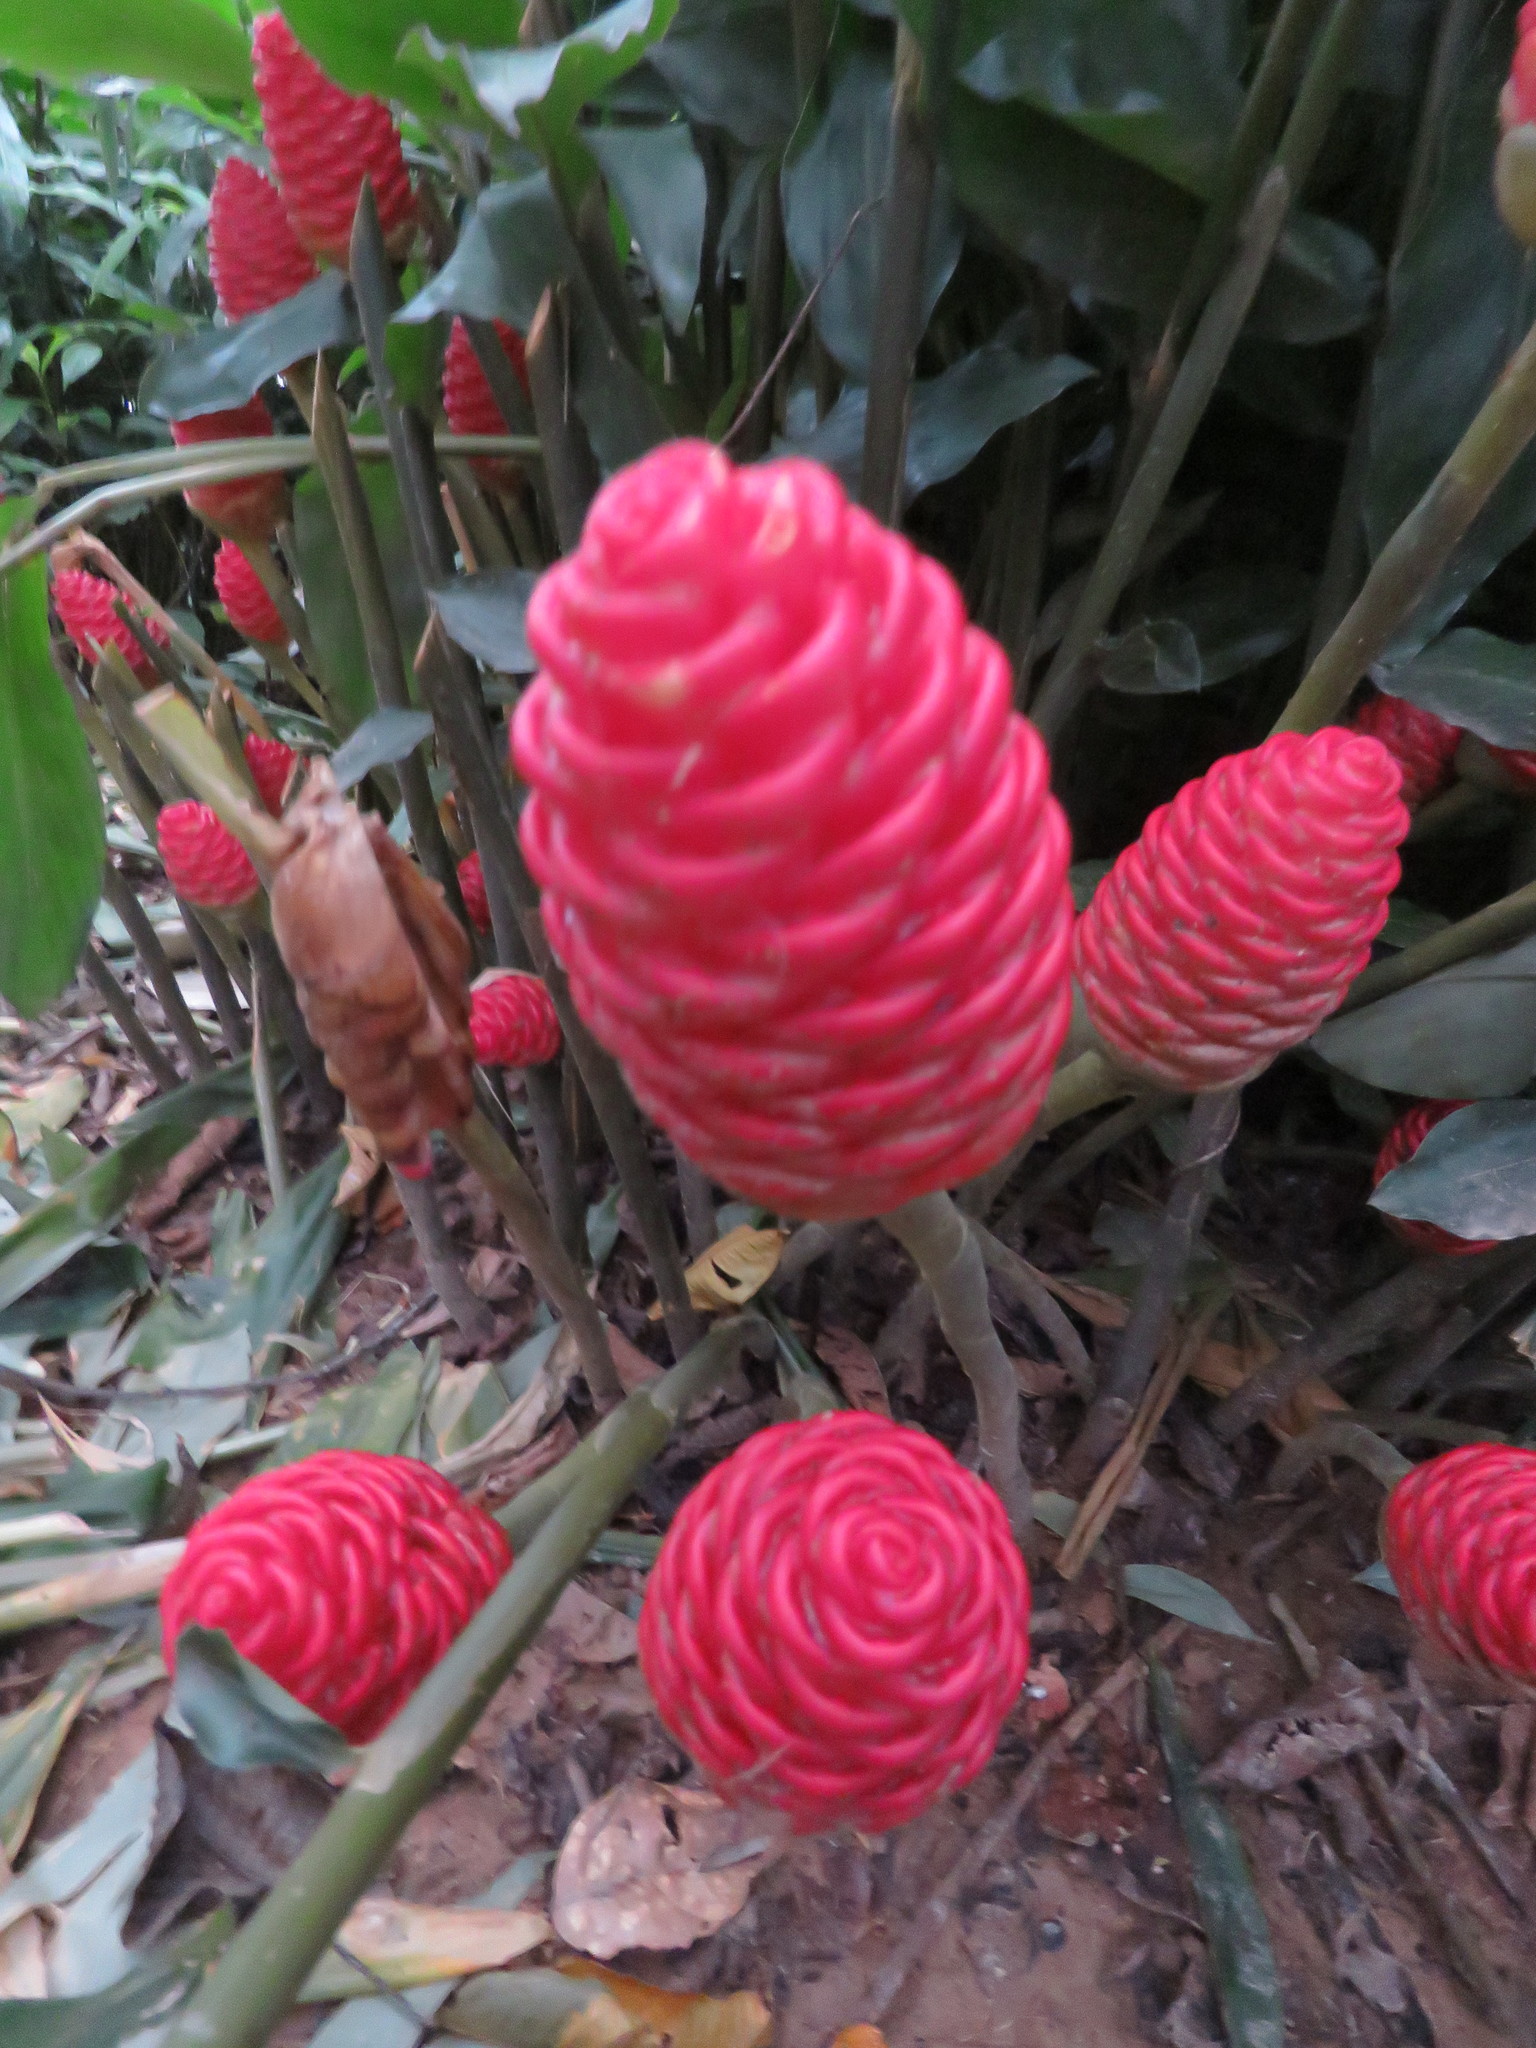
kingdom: Plantae
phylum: Tracheophyta
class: Liliopsida
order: Zingiberales
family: Zingiberaceae
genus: Zingiber
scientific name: Zingiber zerumbet
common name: Bitter ginger
